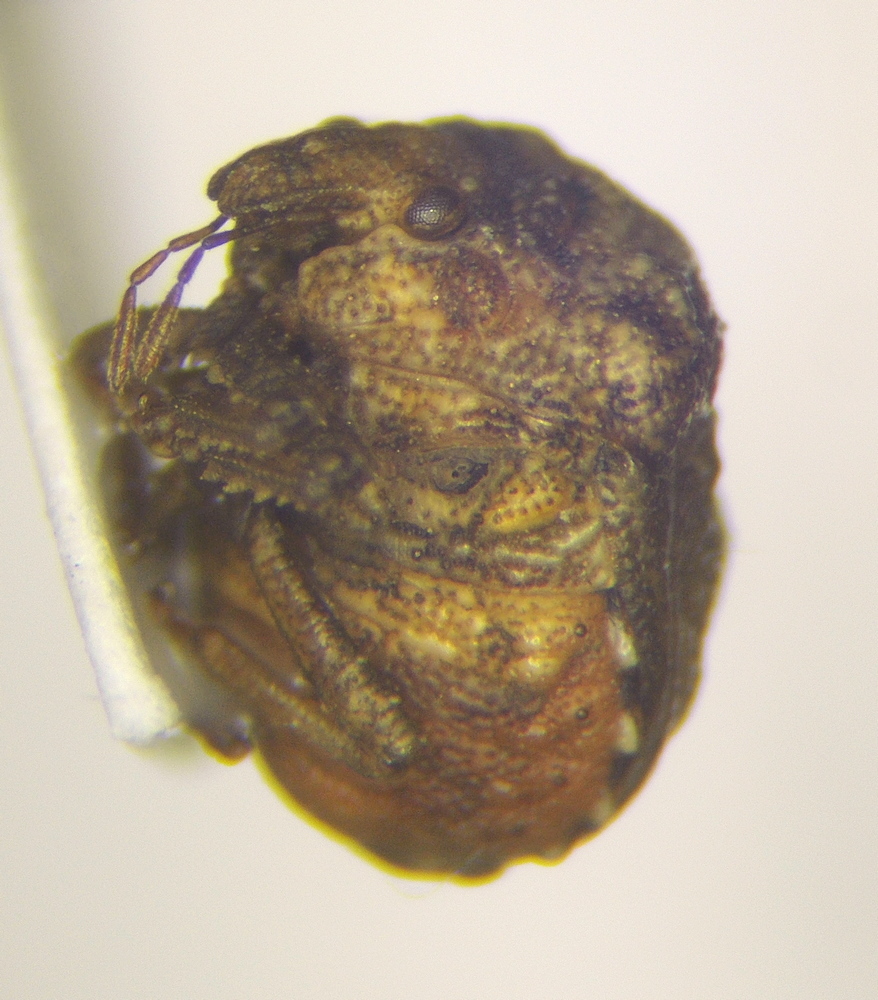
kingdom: Animalia
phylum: Arthropoda
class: Insecta
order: Hemiptera
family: Pentatomidae
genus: Vilpianus
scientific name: Vilpianus galii
